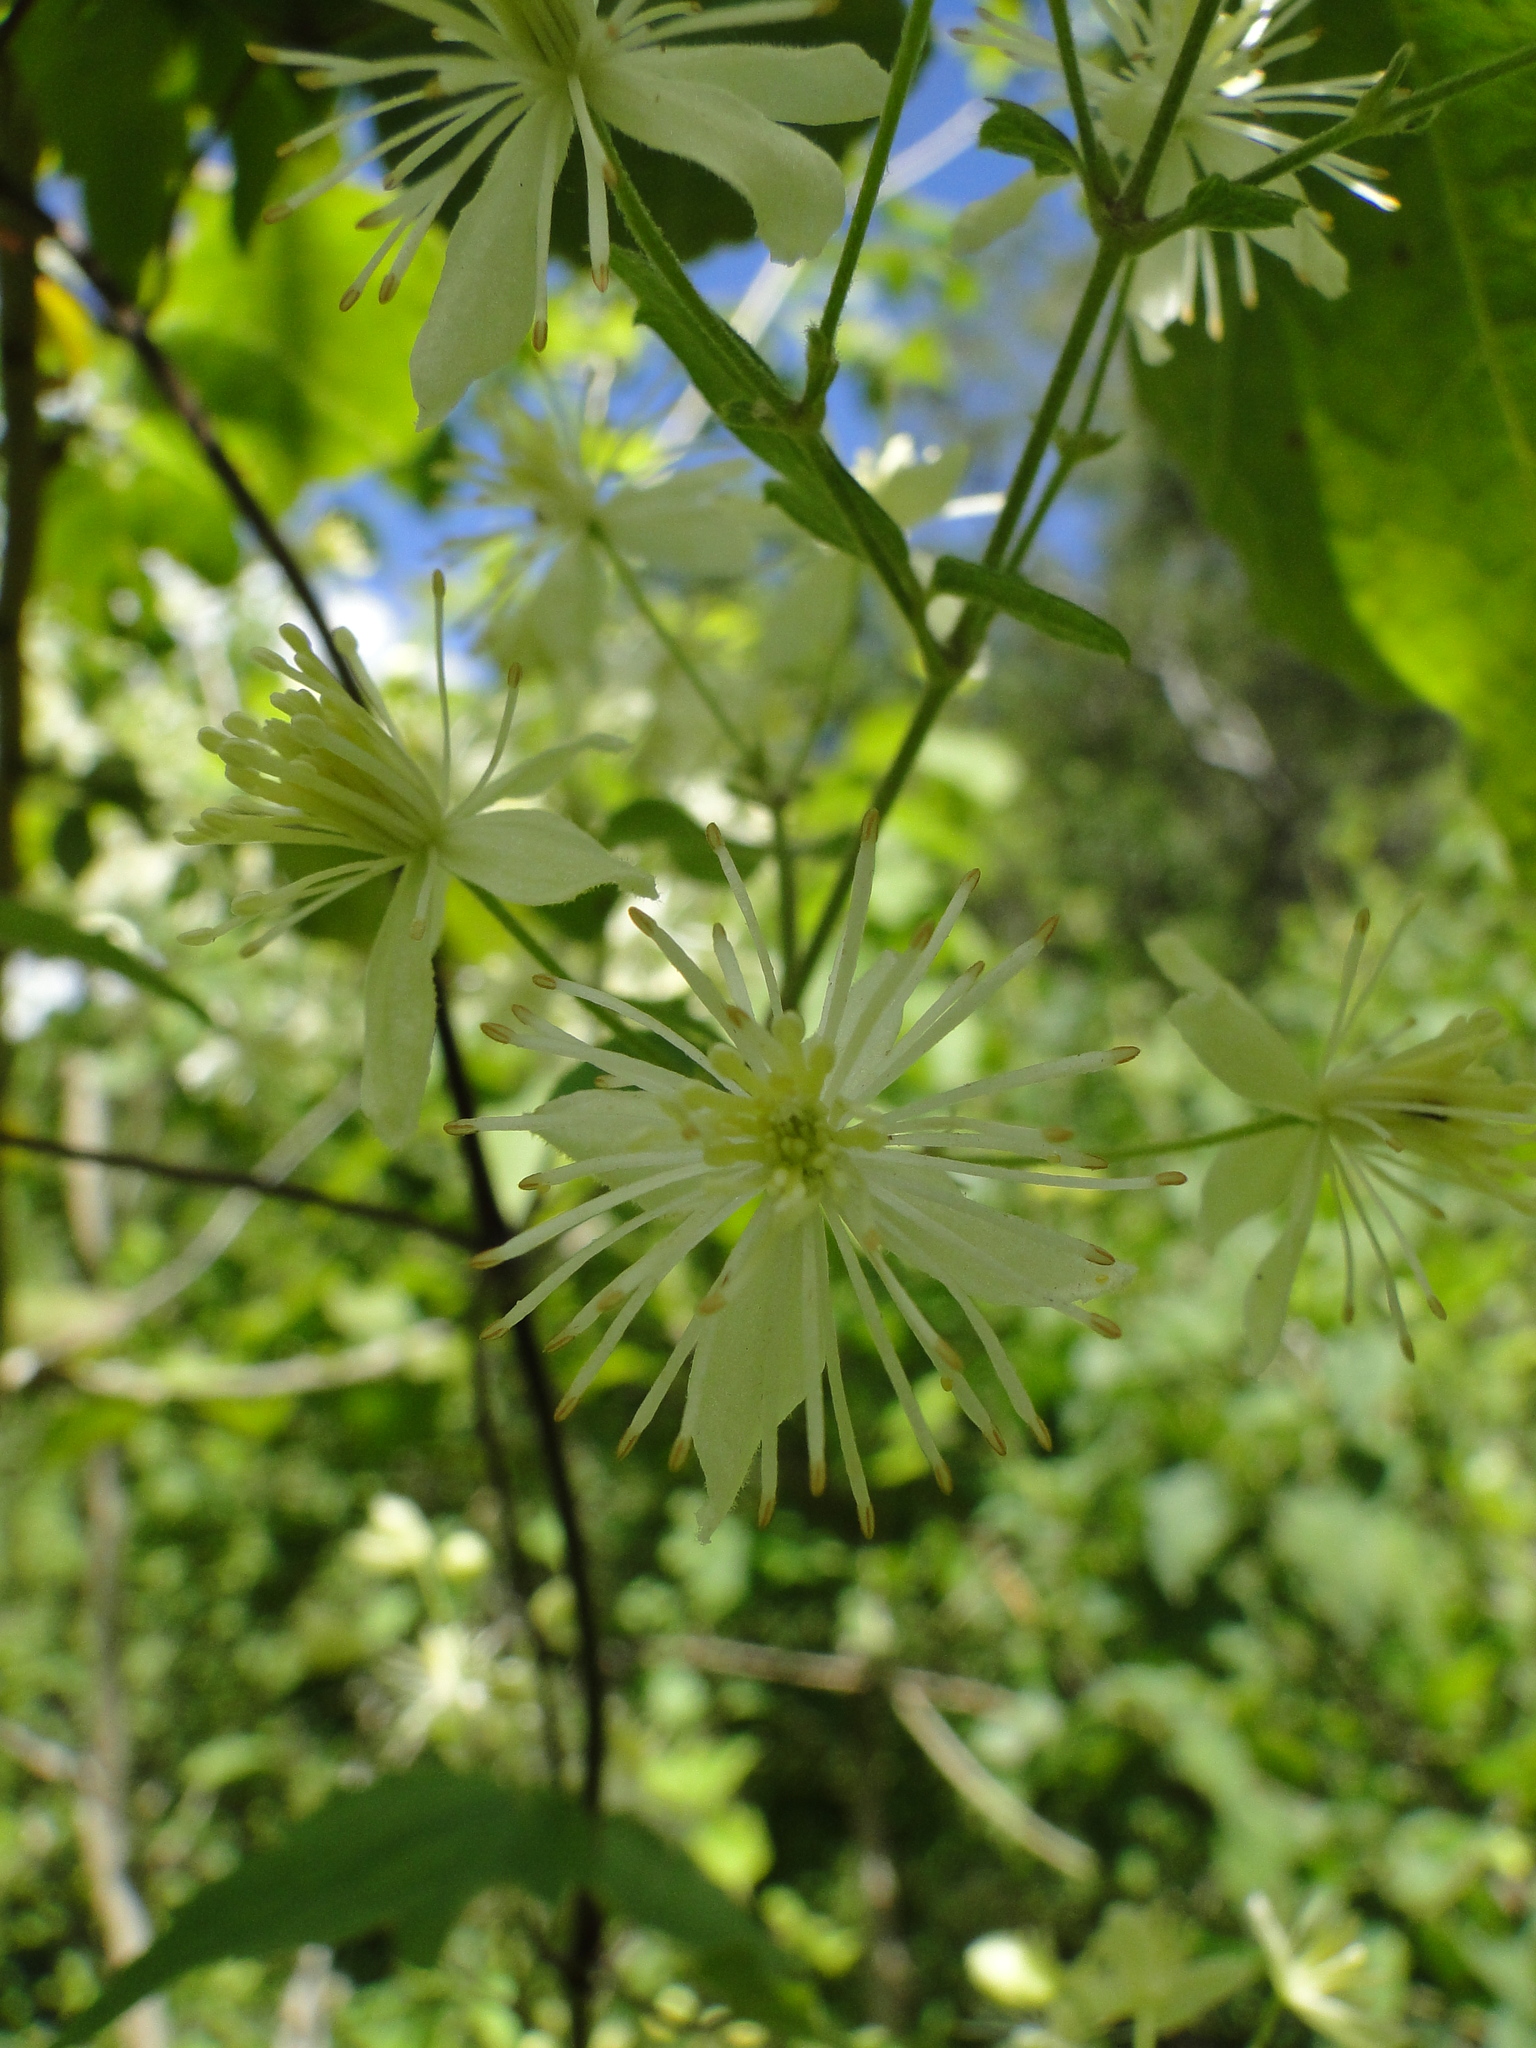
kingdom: Plantae
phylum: Tracheophyta
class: Magnoliopsida
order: Ranunculales
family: Ranunculaceae
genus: Clematis
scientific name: Clematis rhodocarpa
